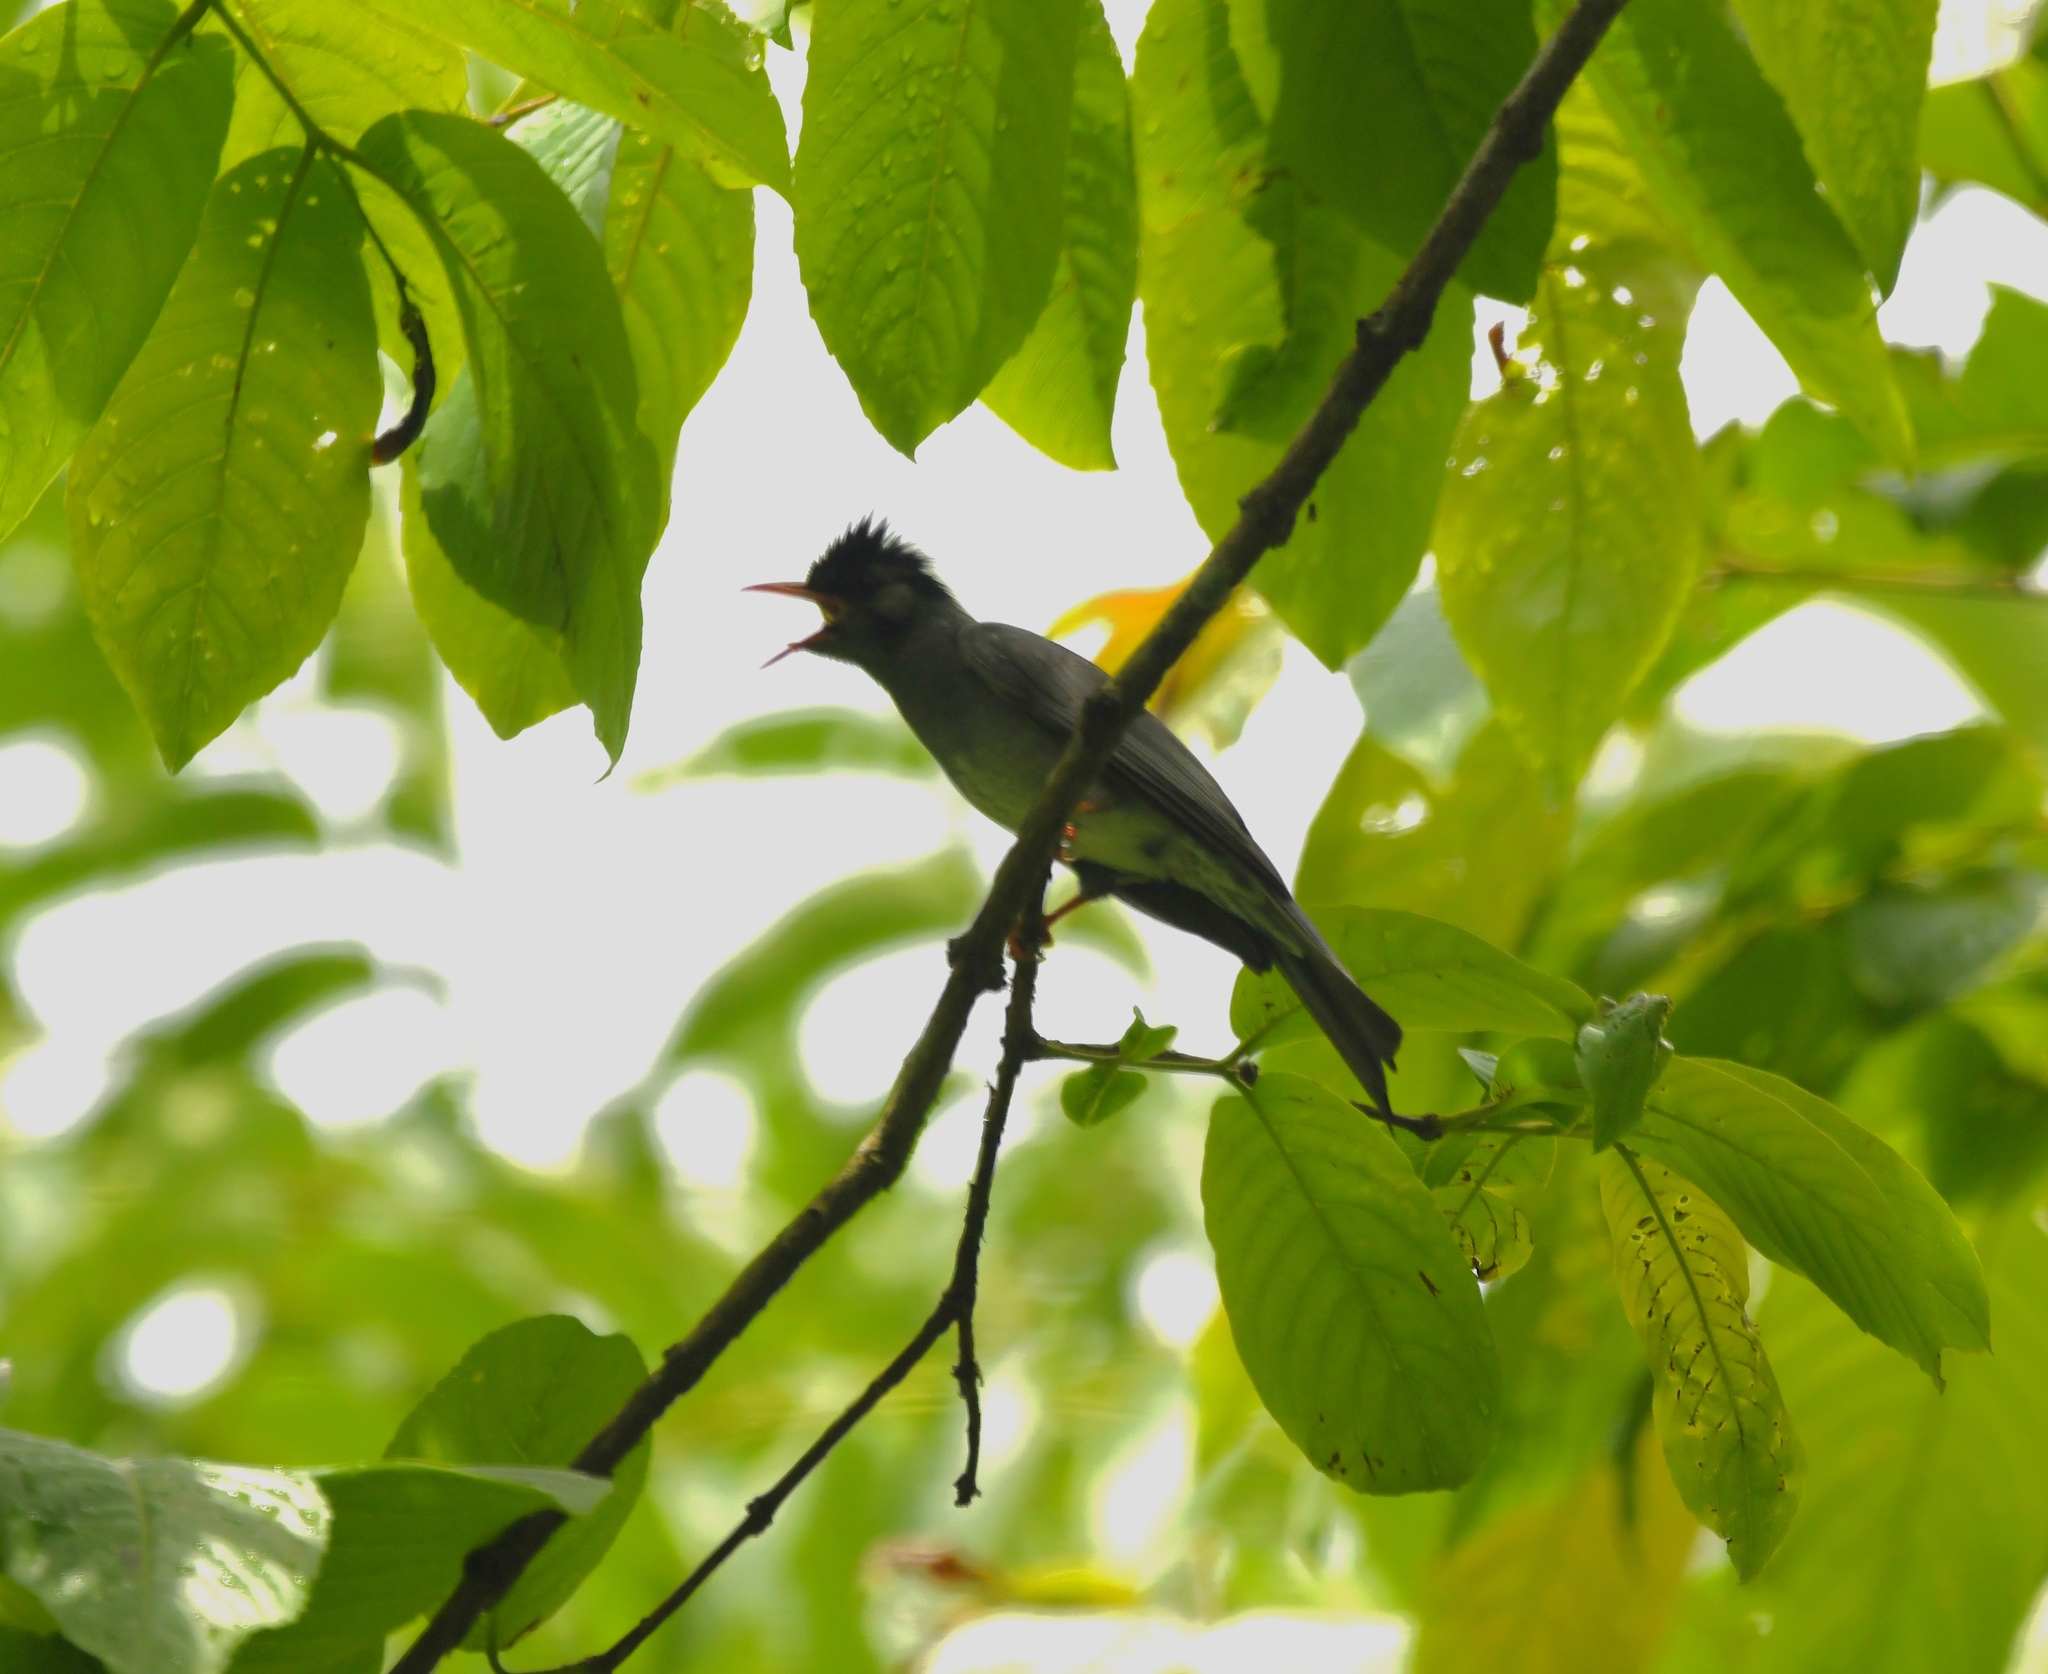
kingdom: Animalia
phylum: Chordata
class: Aves
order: Passeriformes
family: Pycnonotidae
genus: Hypsipetes
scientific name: Hypsipetes leucocephalus
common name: Black bulbul
